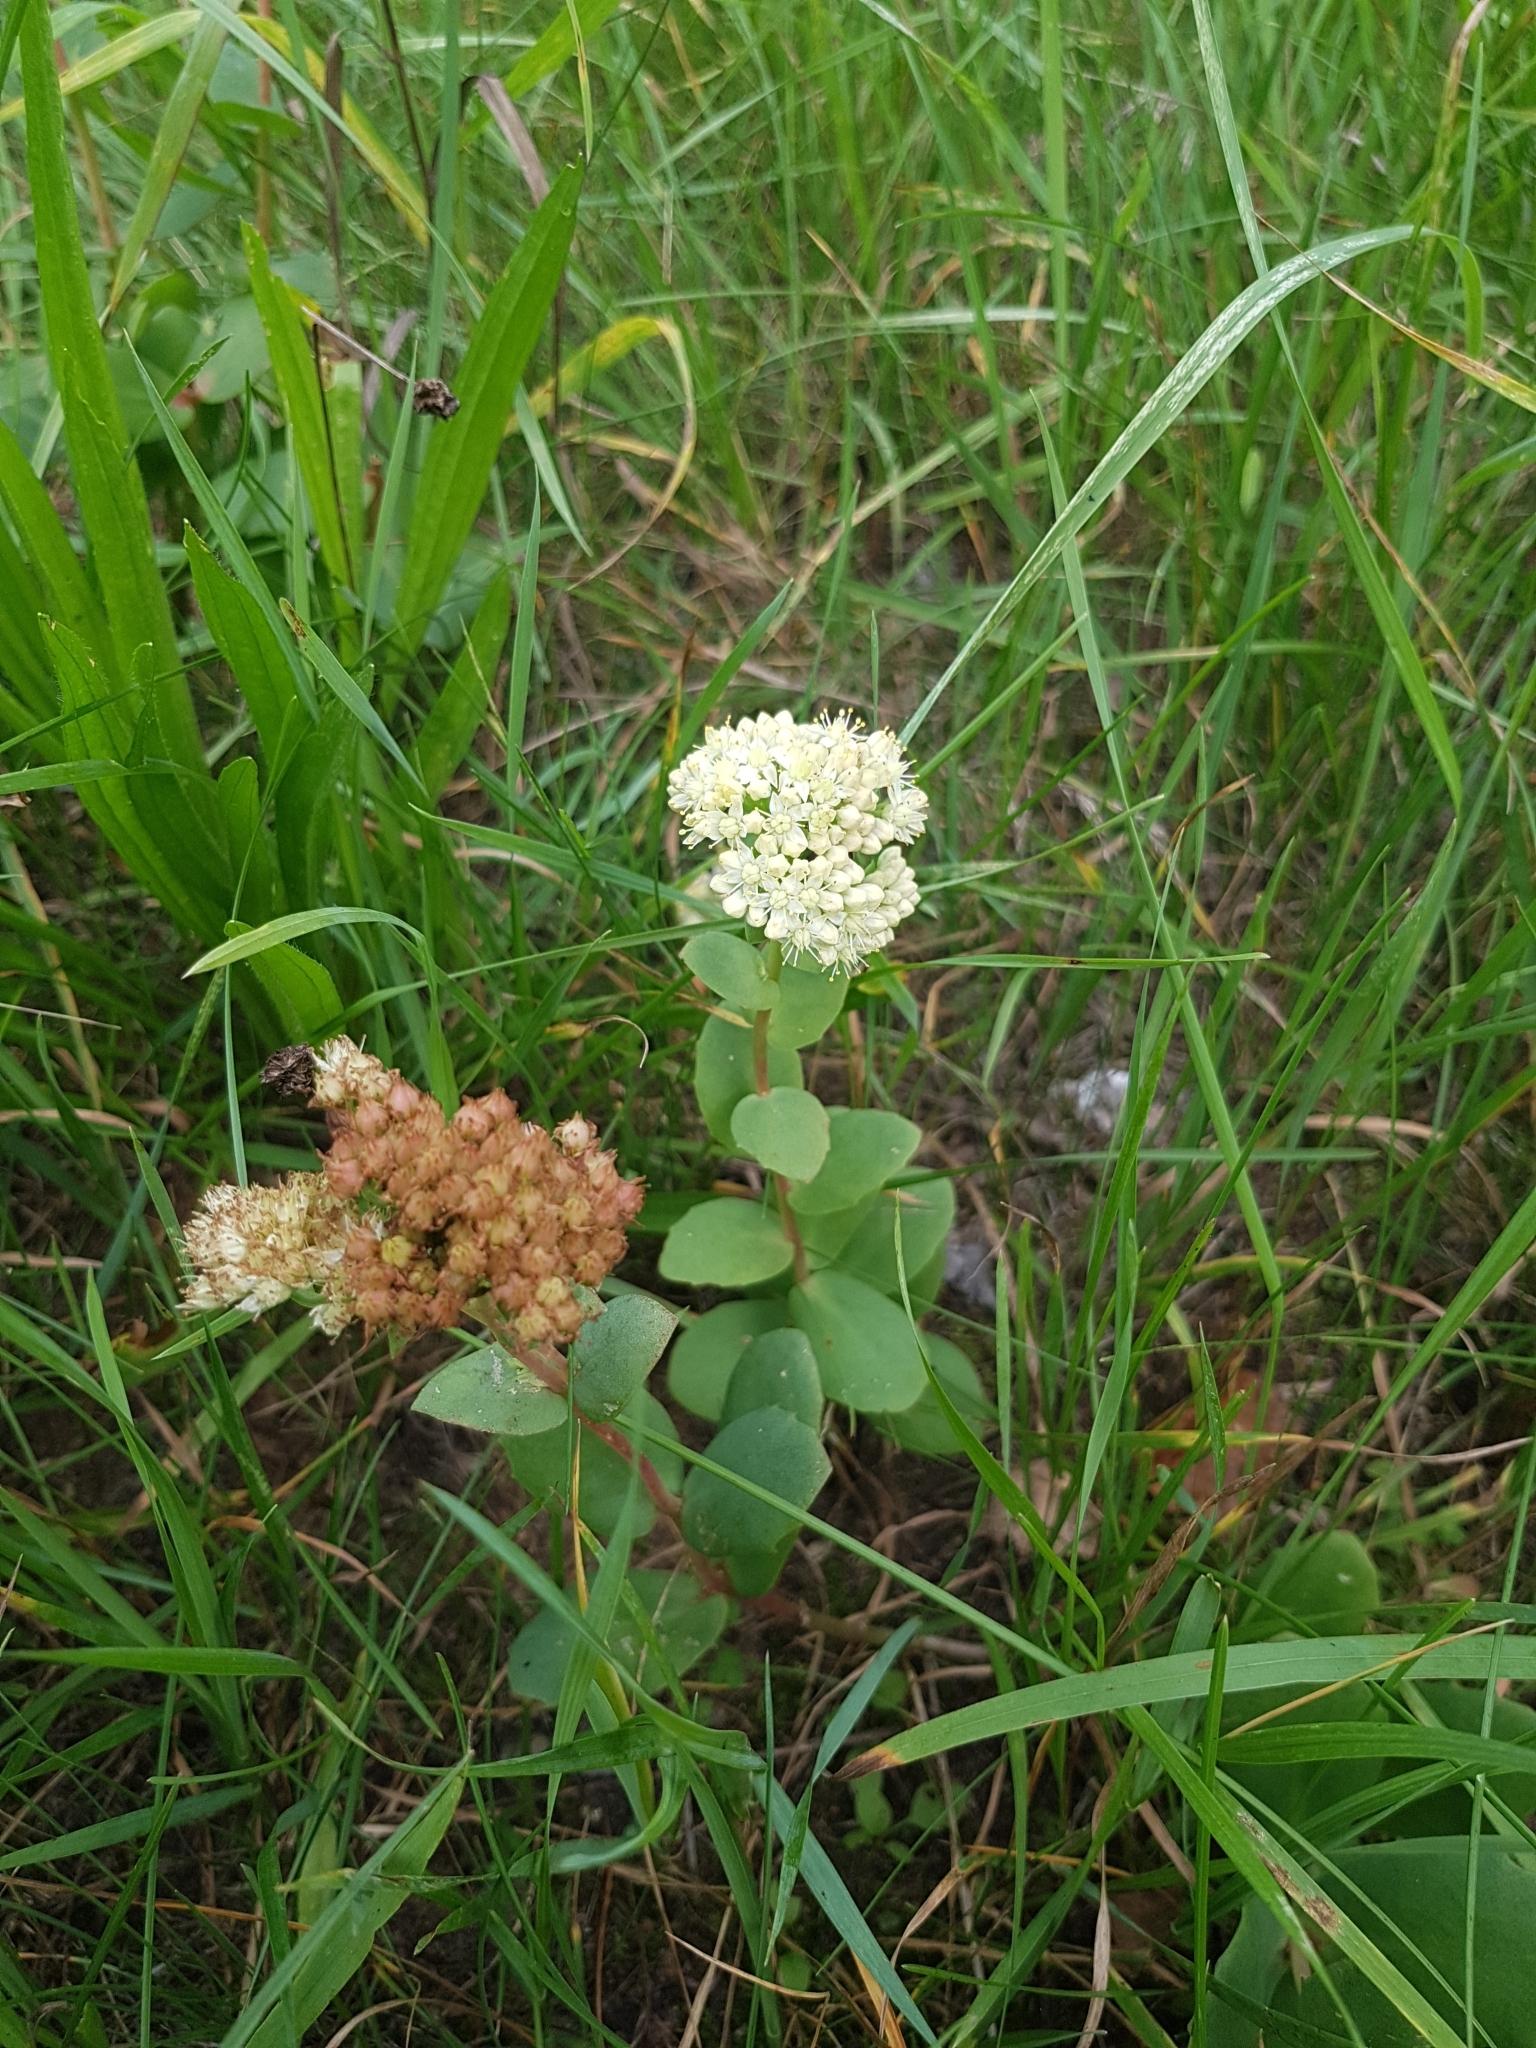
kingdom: Plantae
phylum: Tracheophyta
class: Magnoliopsida
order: Saxifragales
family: Crassulaceae
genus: Hylotelephium
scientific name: Hylotelephium telephium
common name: Live-forever
